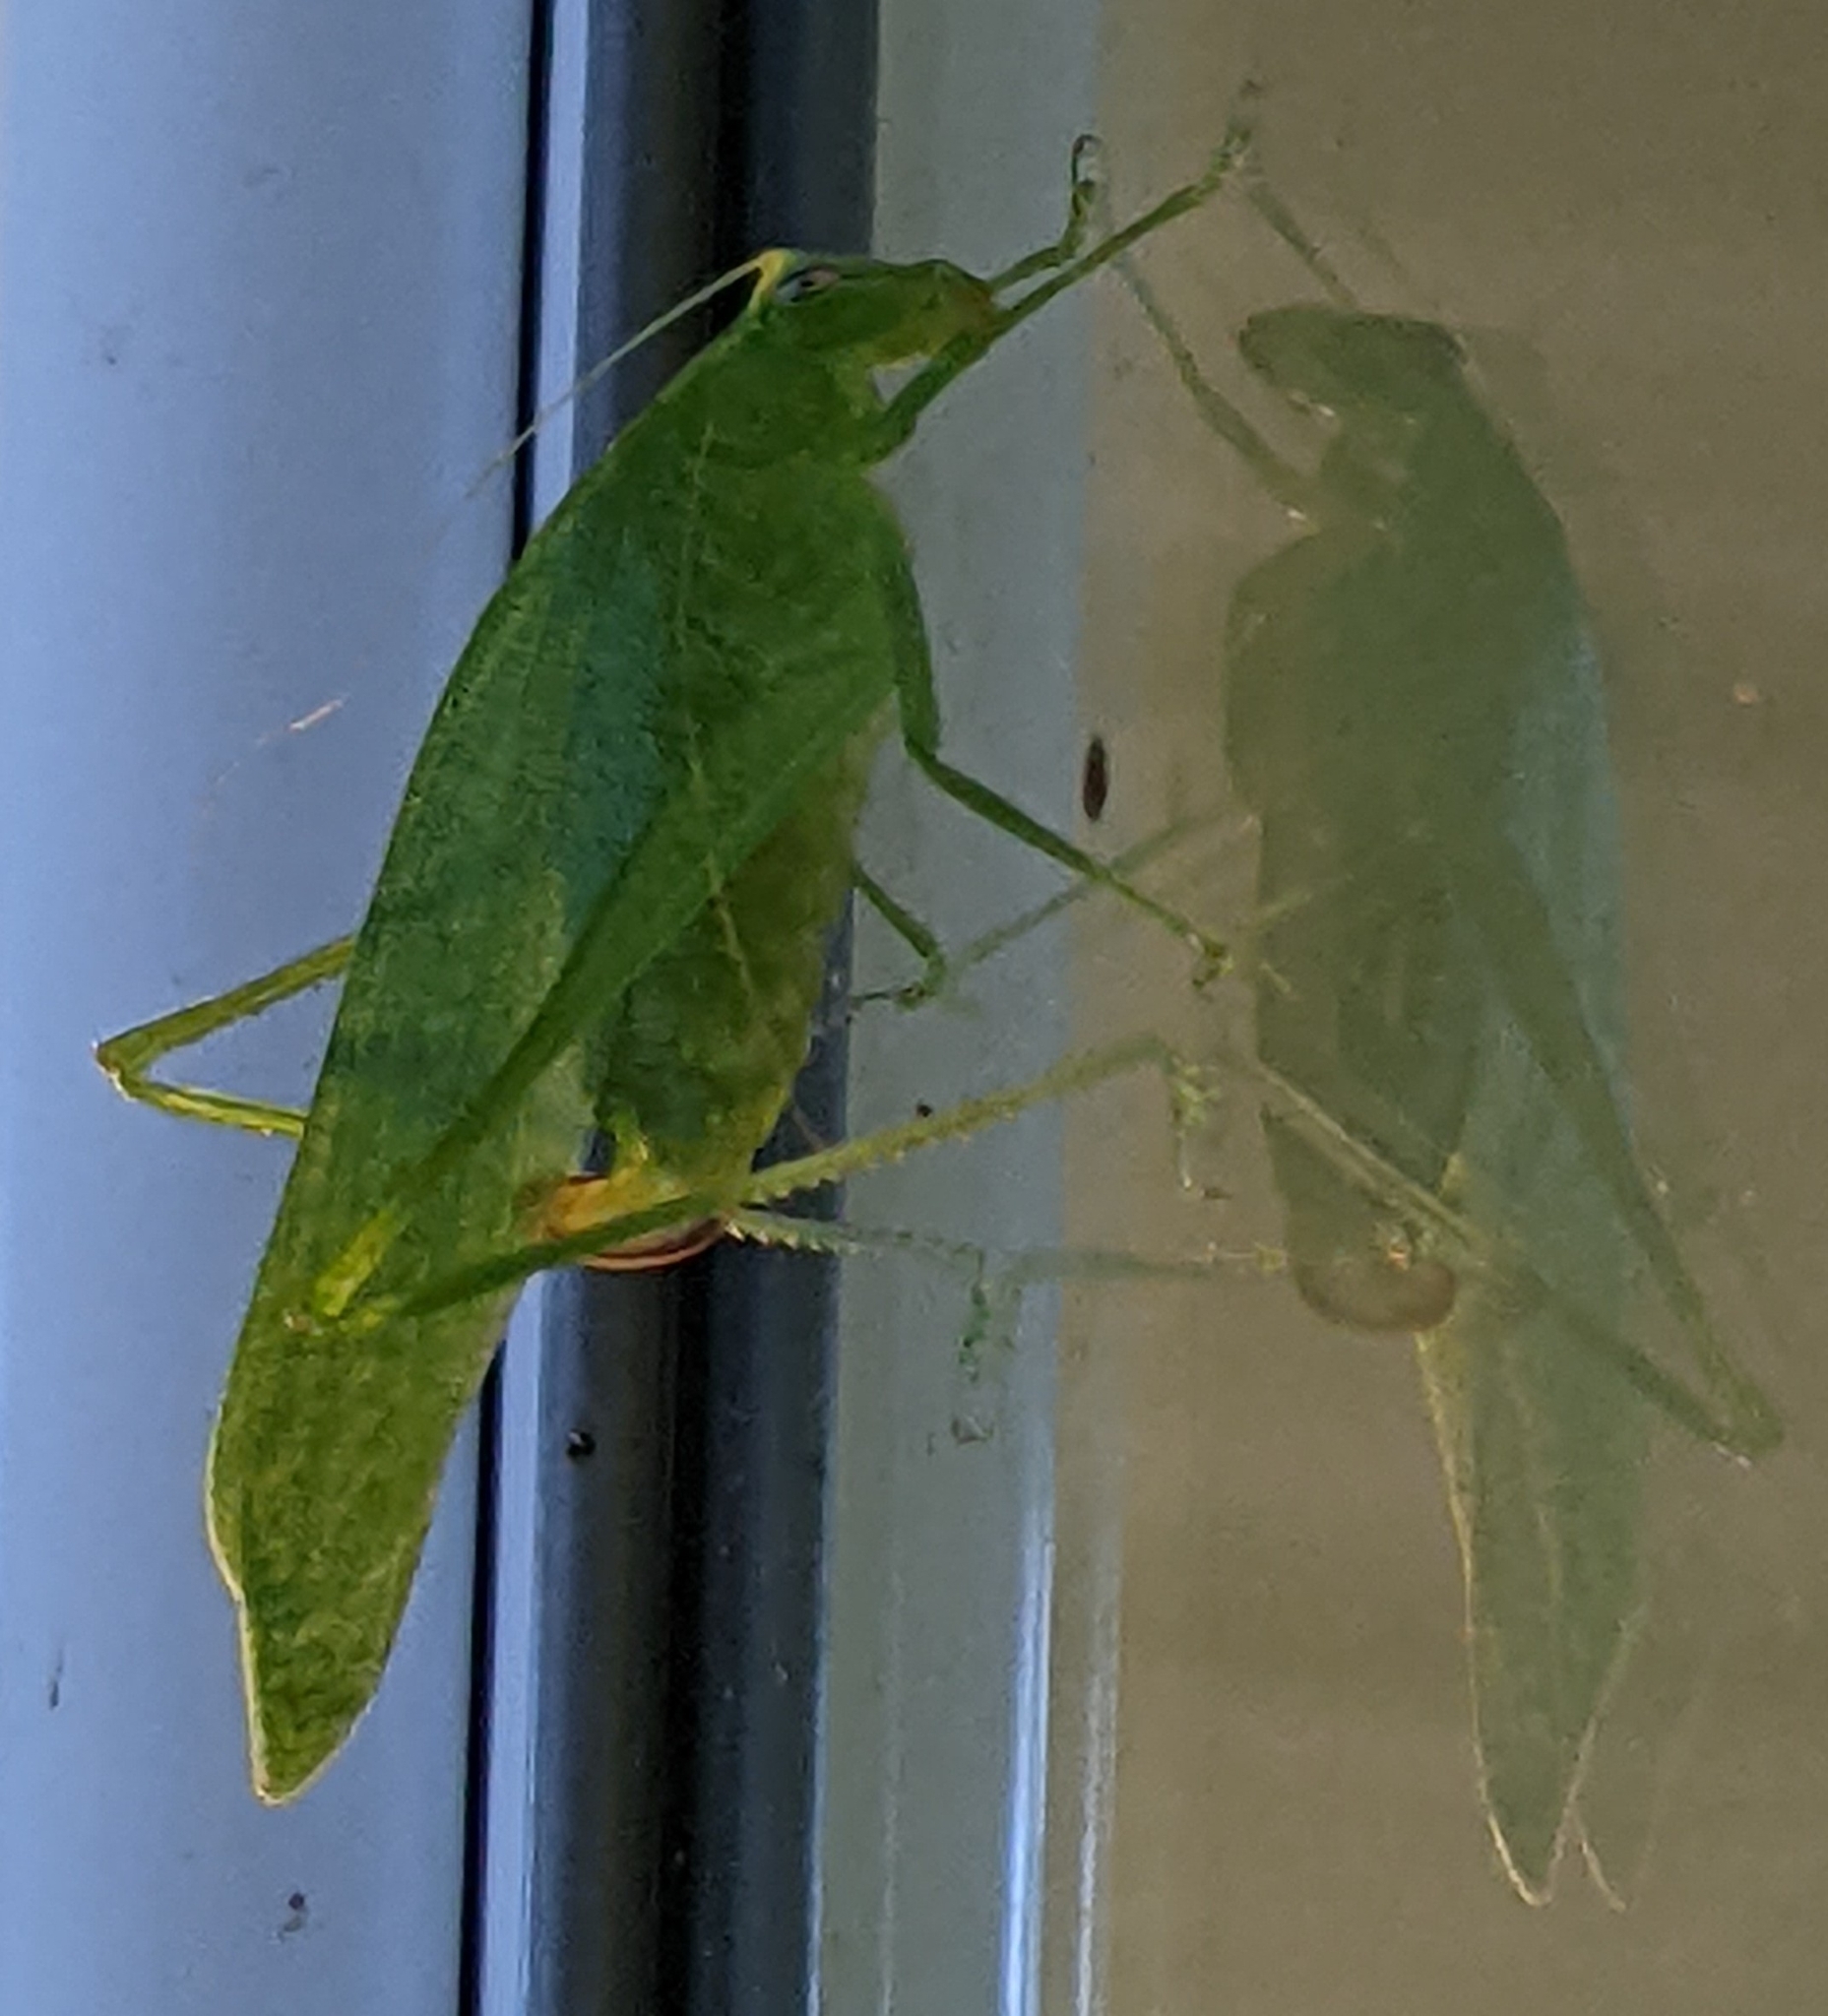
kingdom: Animalia
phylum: Arthropoda
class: Insecta
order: Orthoptera
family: Tettigoniidae
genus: Montezumina
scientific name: Montezumina modesta
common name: Modest katydid
